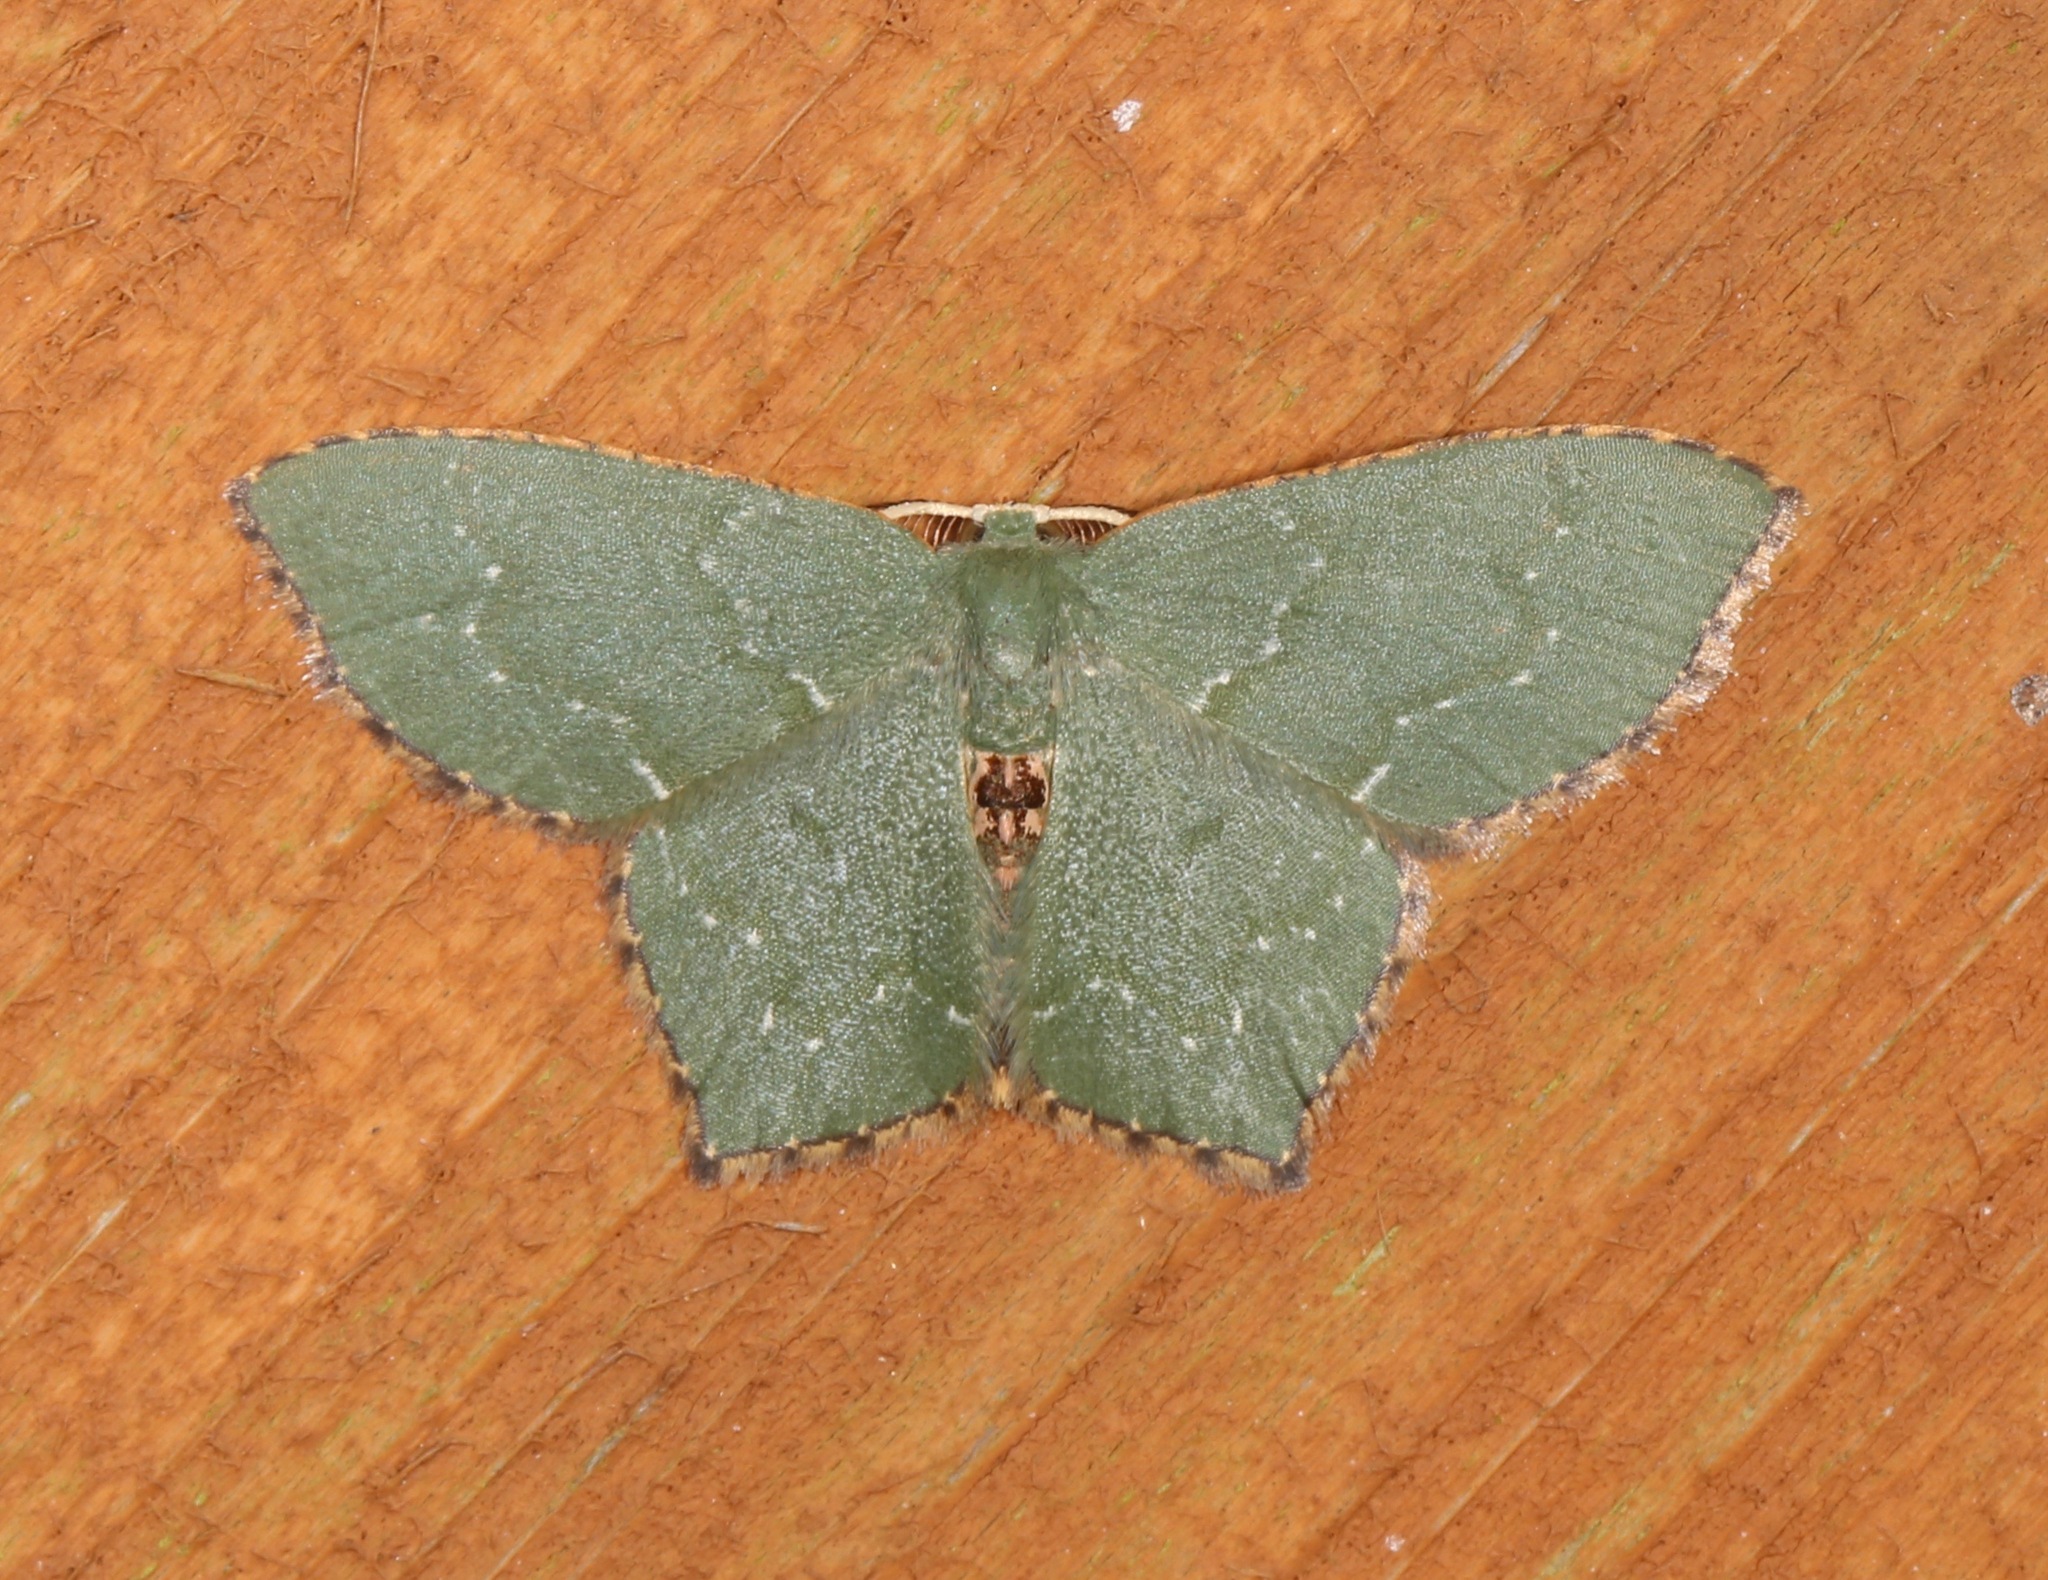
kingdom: Animalia
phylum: Arthropoda
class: Insecta
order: Lepidoptera
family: Geometridae
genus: Chloropteryx
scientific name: Chloropteryx tepperaria
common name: Angle winged emerald moth
